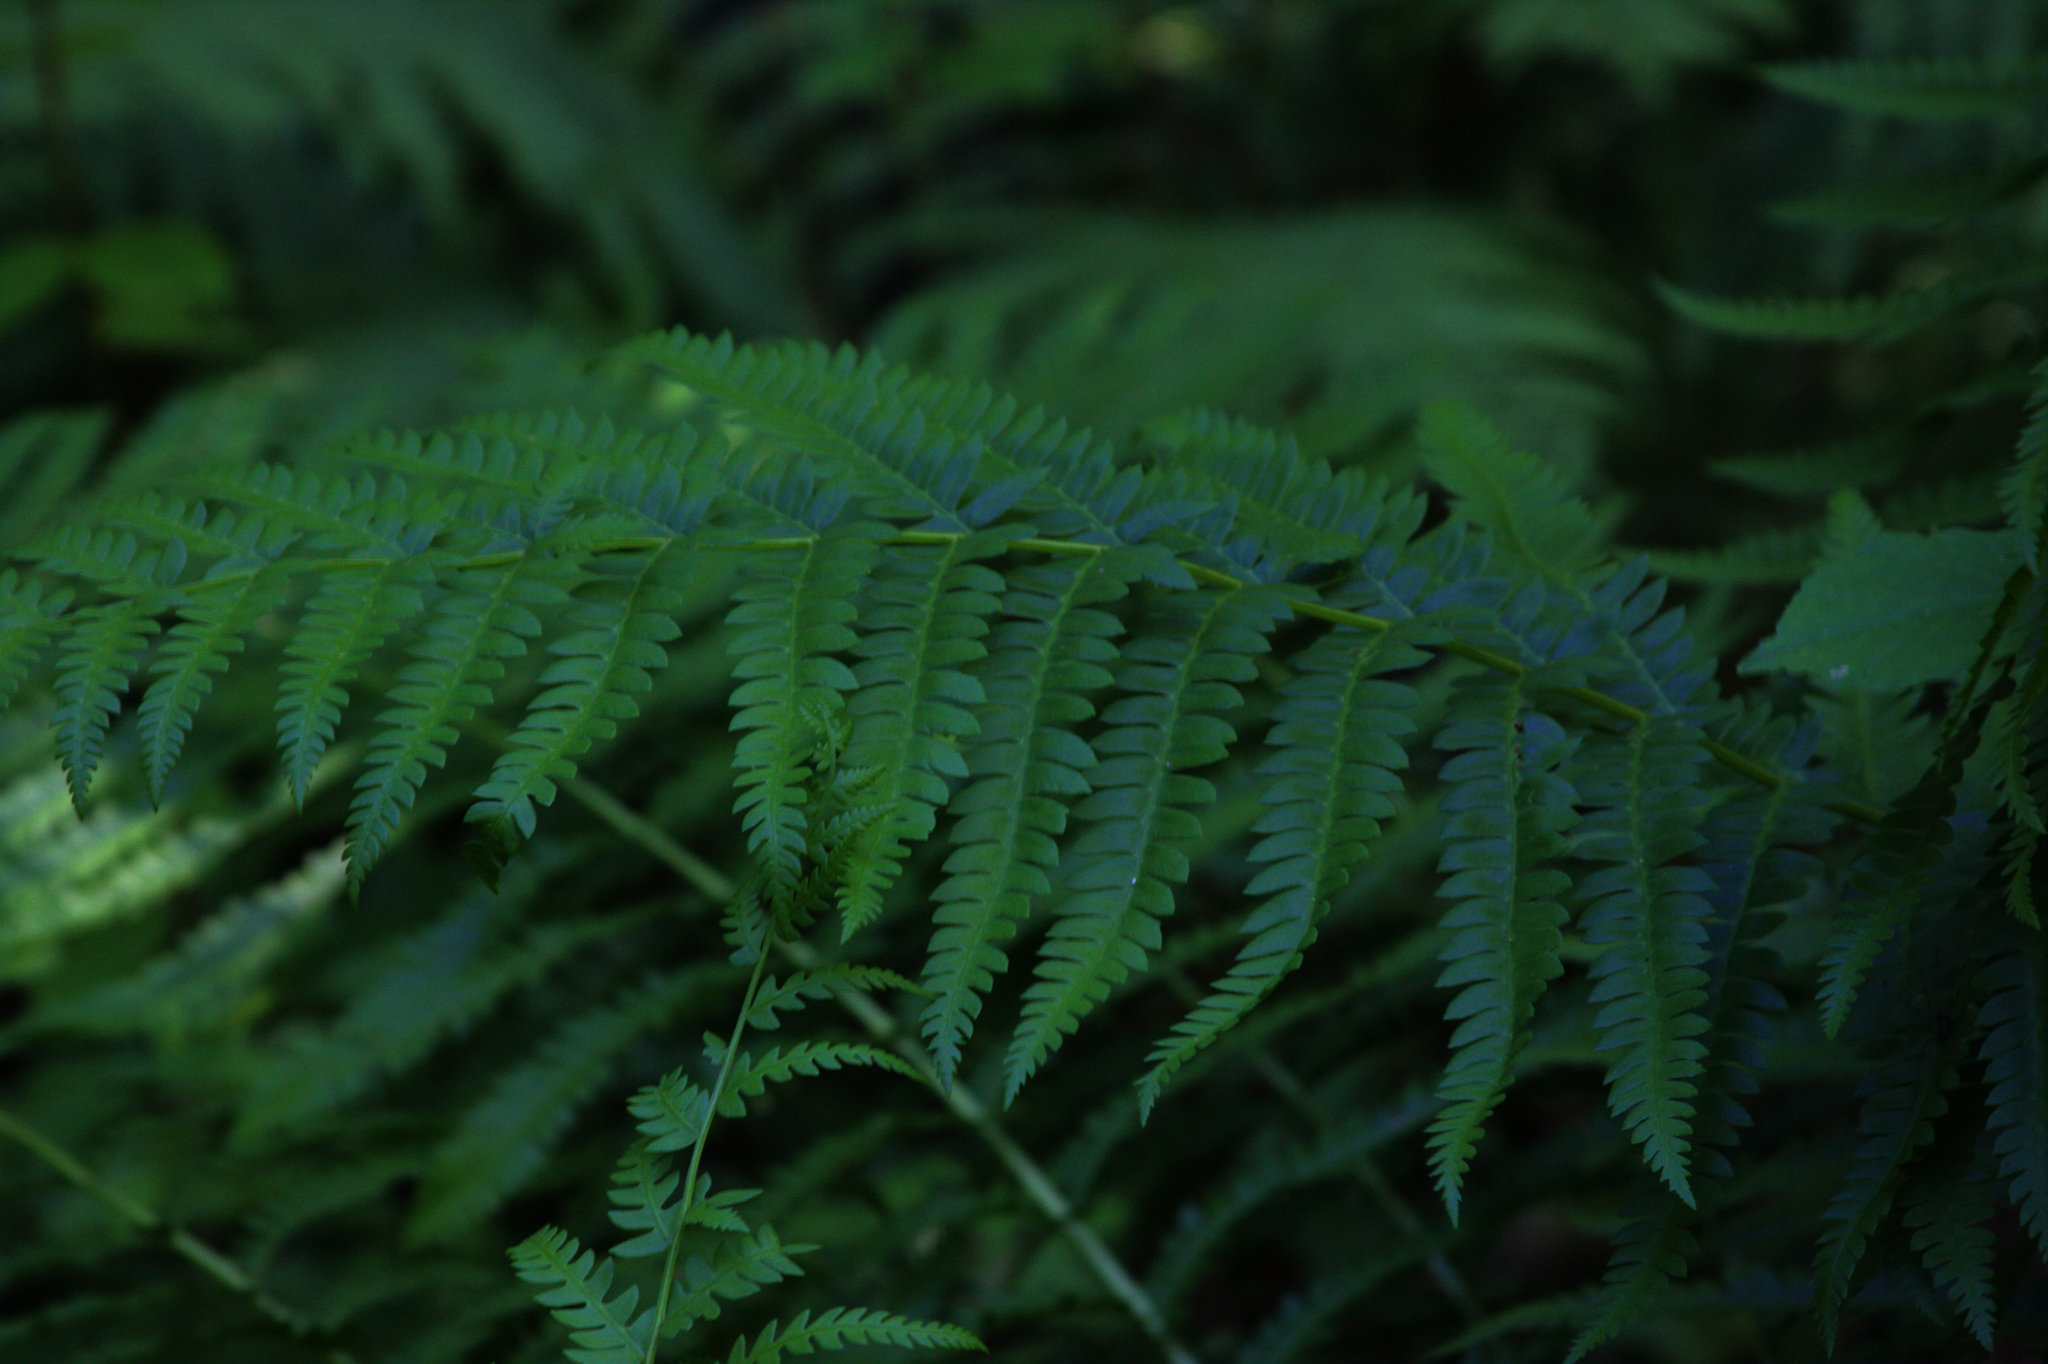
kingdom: Plantae
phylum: Tracheophyta
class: Polypodiopsida
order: Osmundales
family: Osmundaceae
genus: Osmundastrum
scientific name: Osmundastrum cinnamomeum
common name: Cinnamon fern
